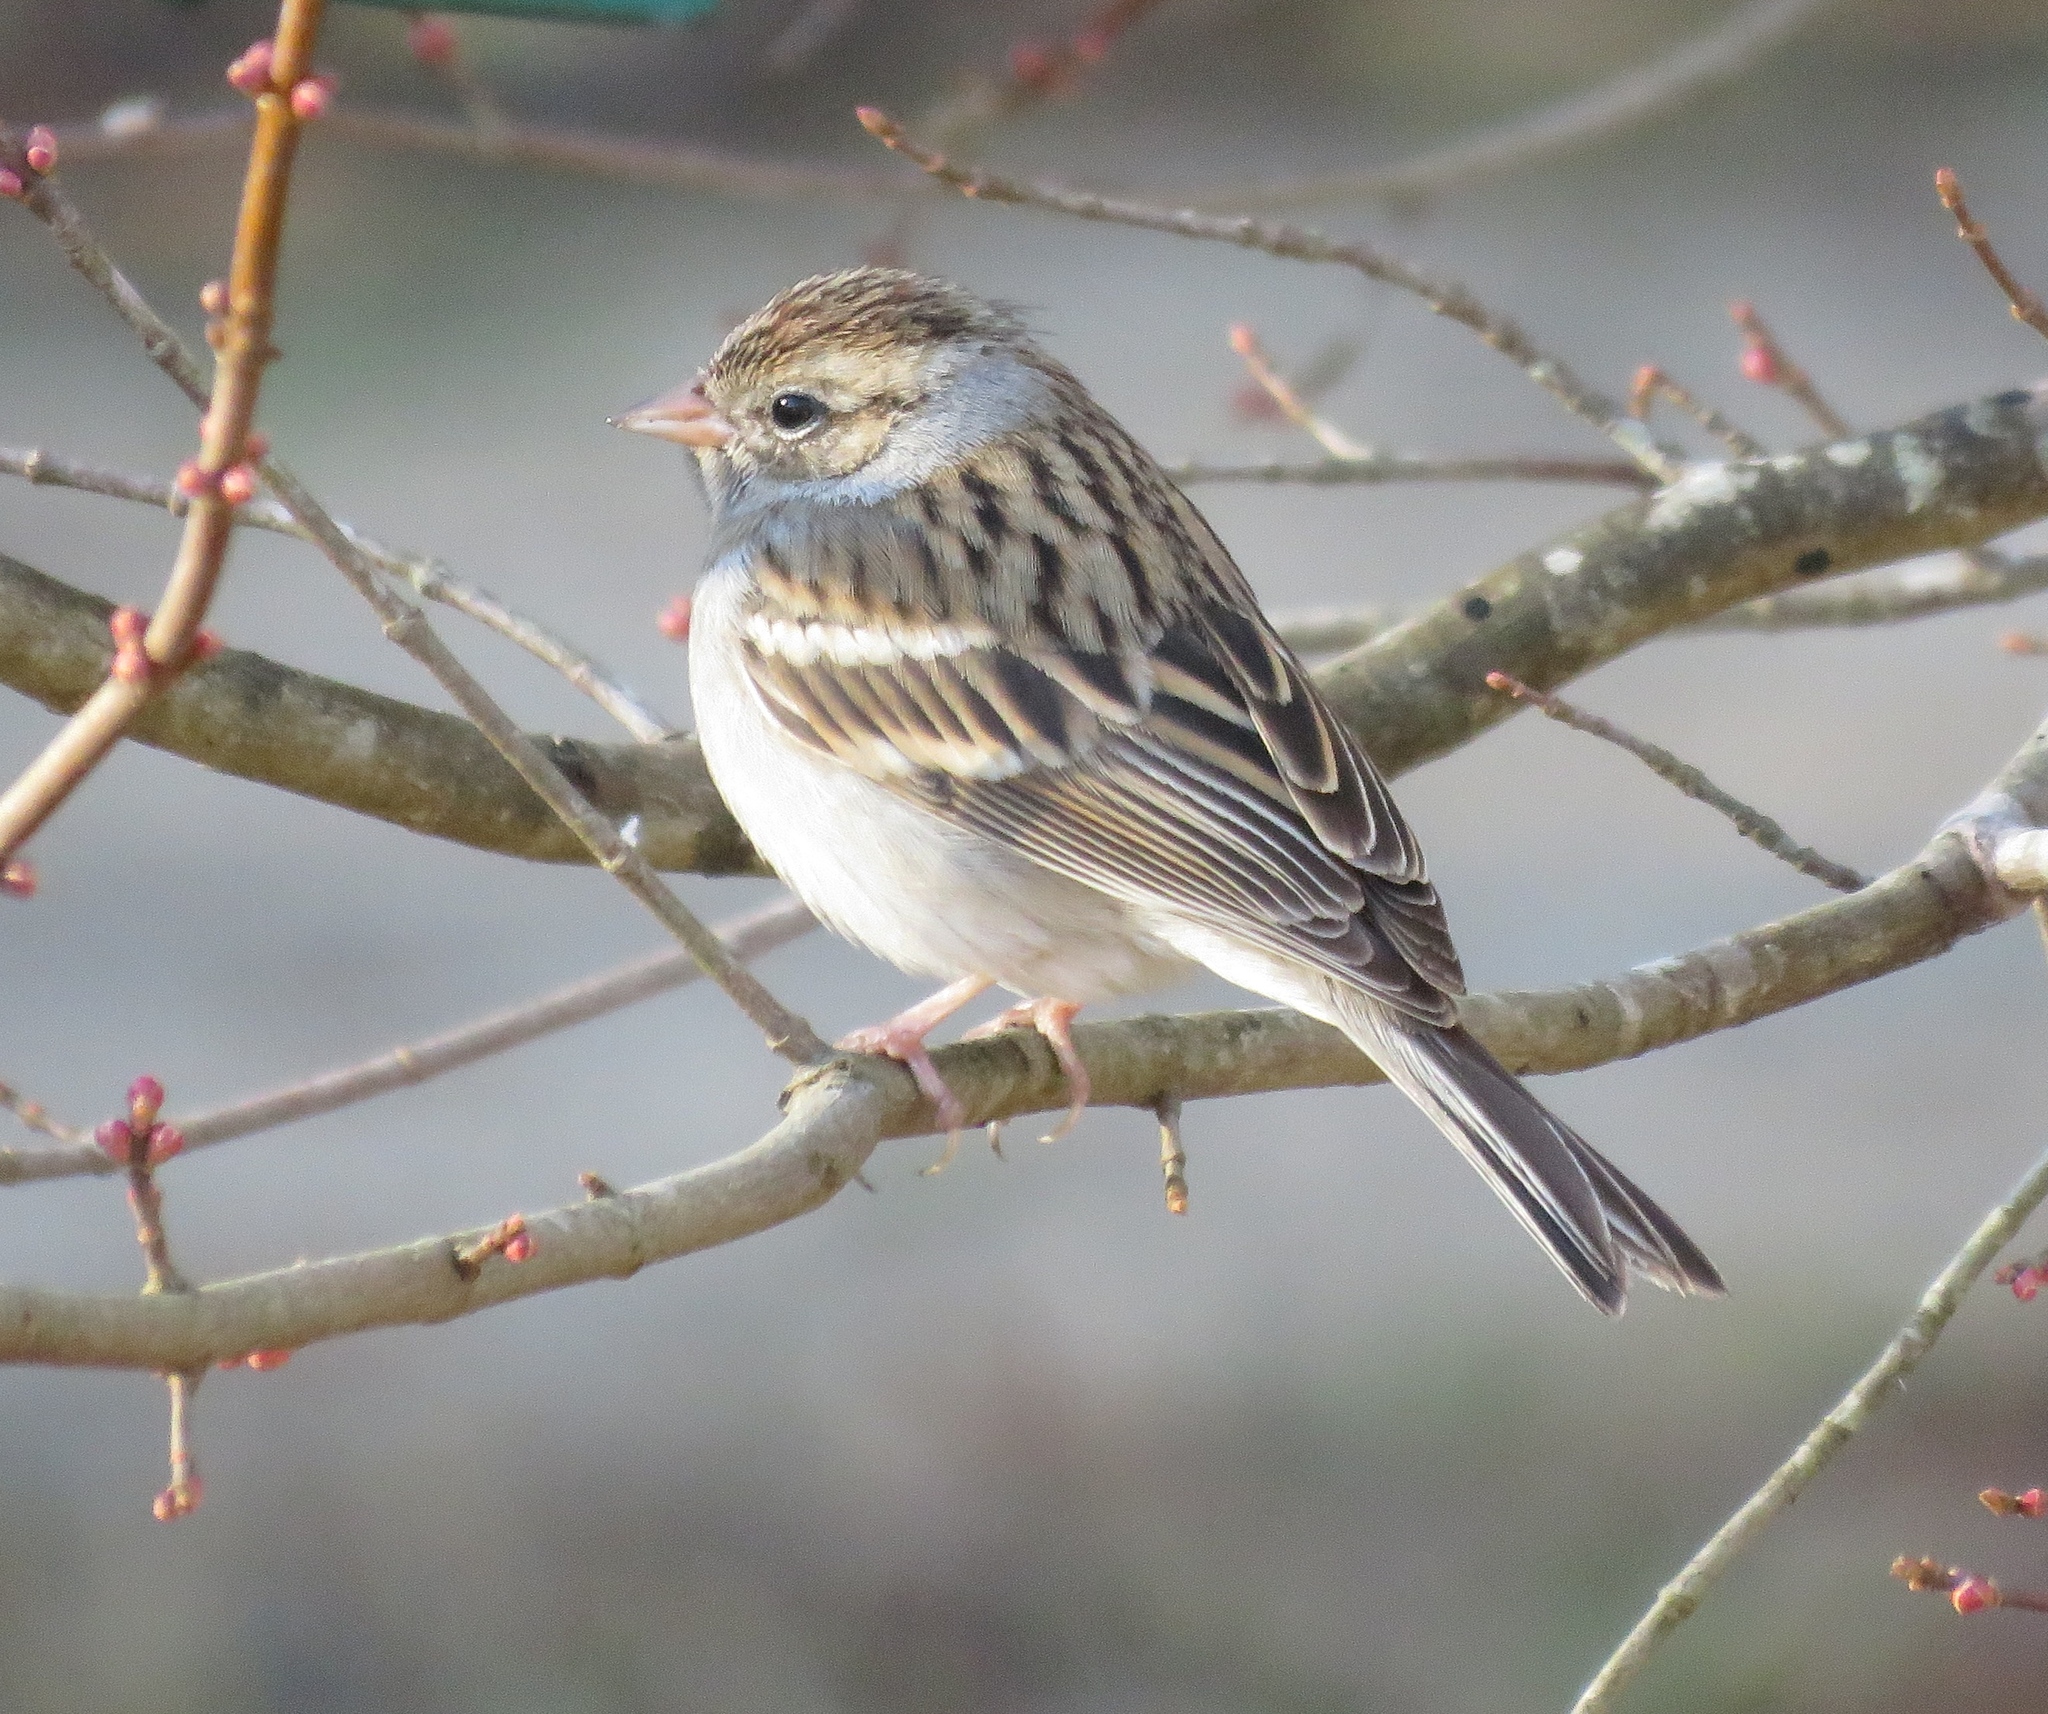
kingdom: Animalia
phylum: Chordata
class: Aves
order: Passeriformes
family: Passerellidae
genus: Spizella
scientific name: Spizella passerina
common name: Chipping sparrow
